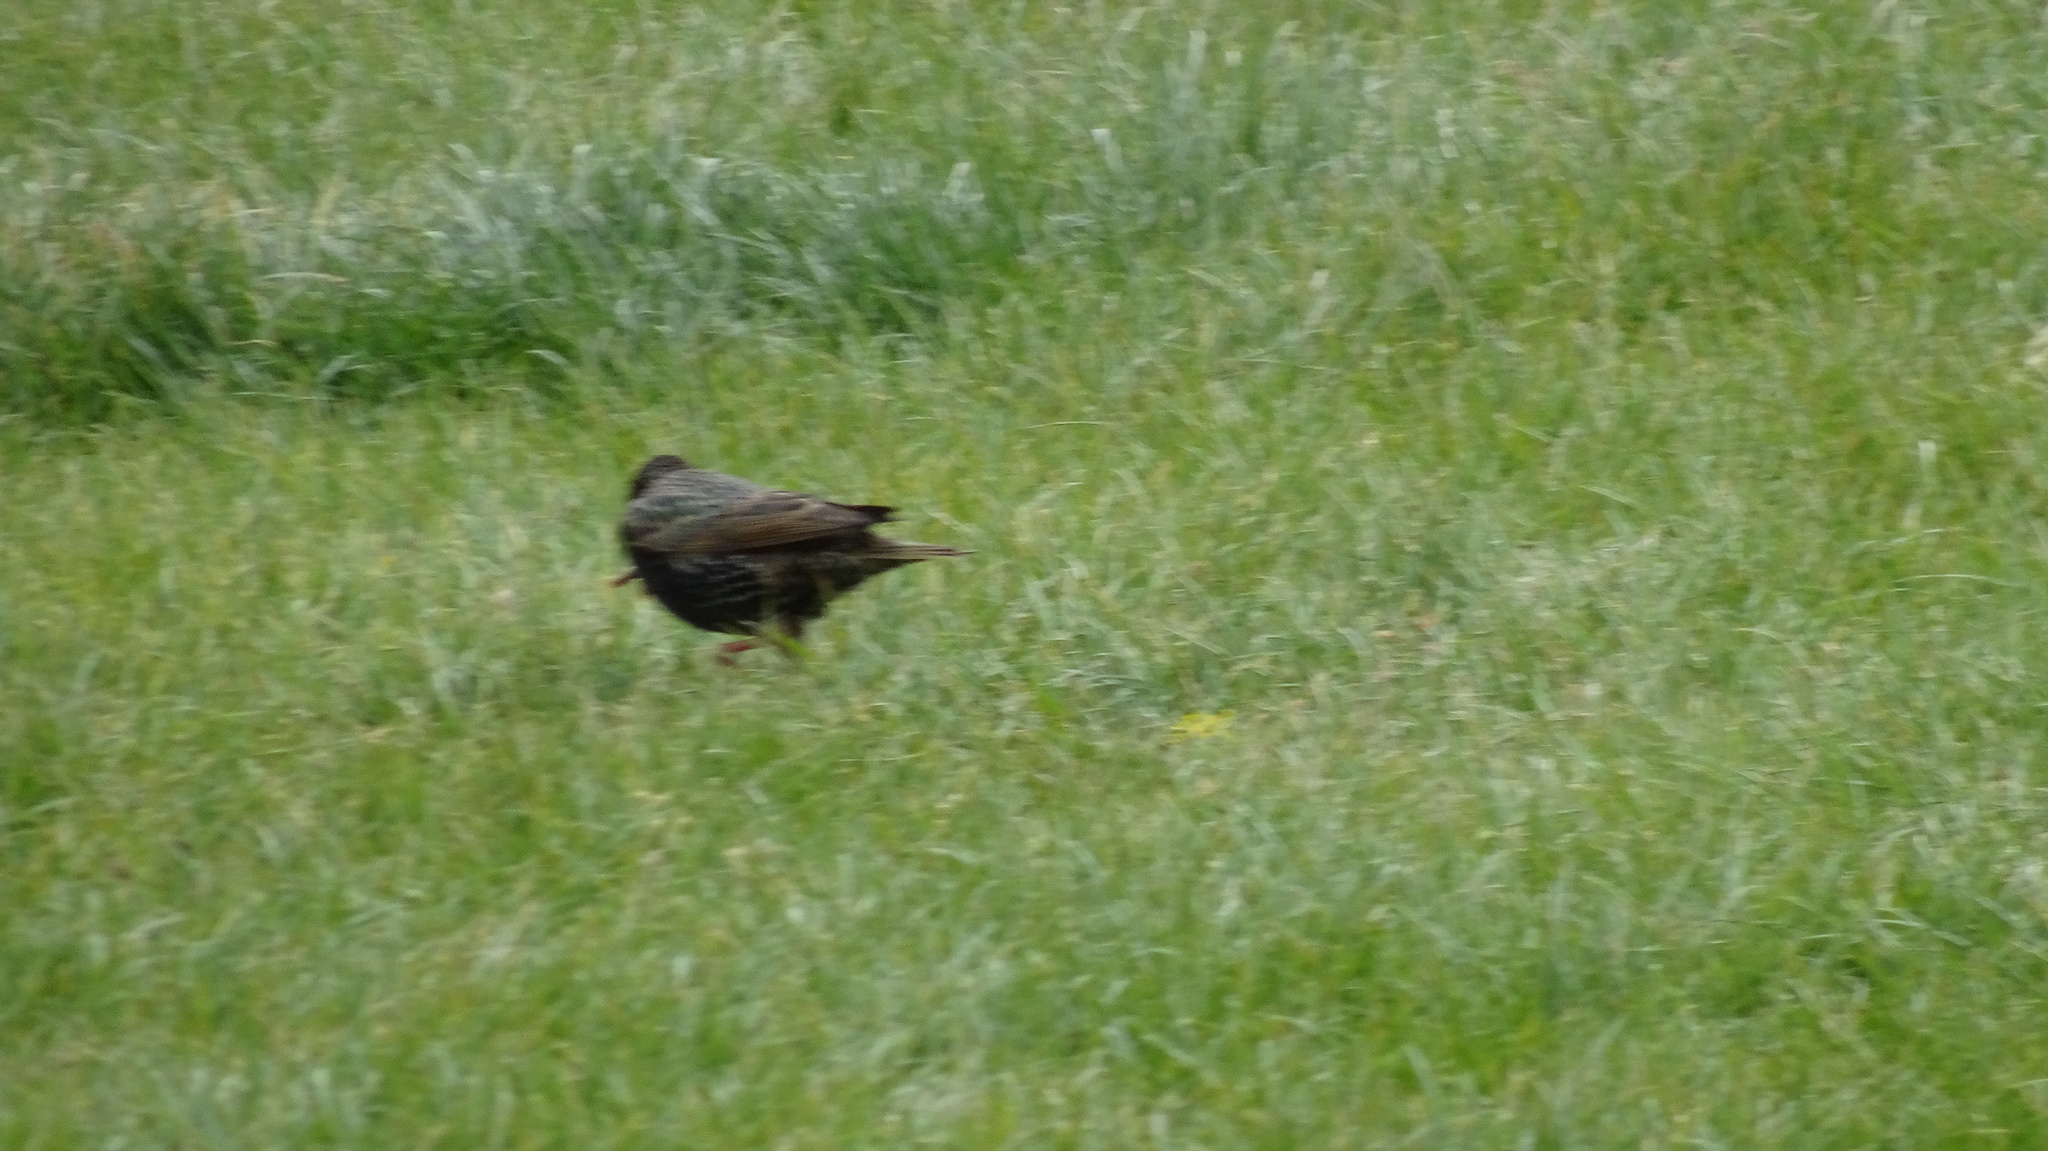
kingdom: Animalia
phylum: Chordata
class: Aves
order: Passeriformes
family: Sturnidae
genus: Sturnus
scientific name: Sturnus vulgaris
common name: Common starling
